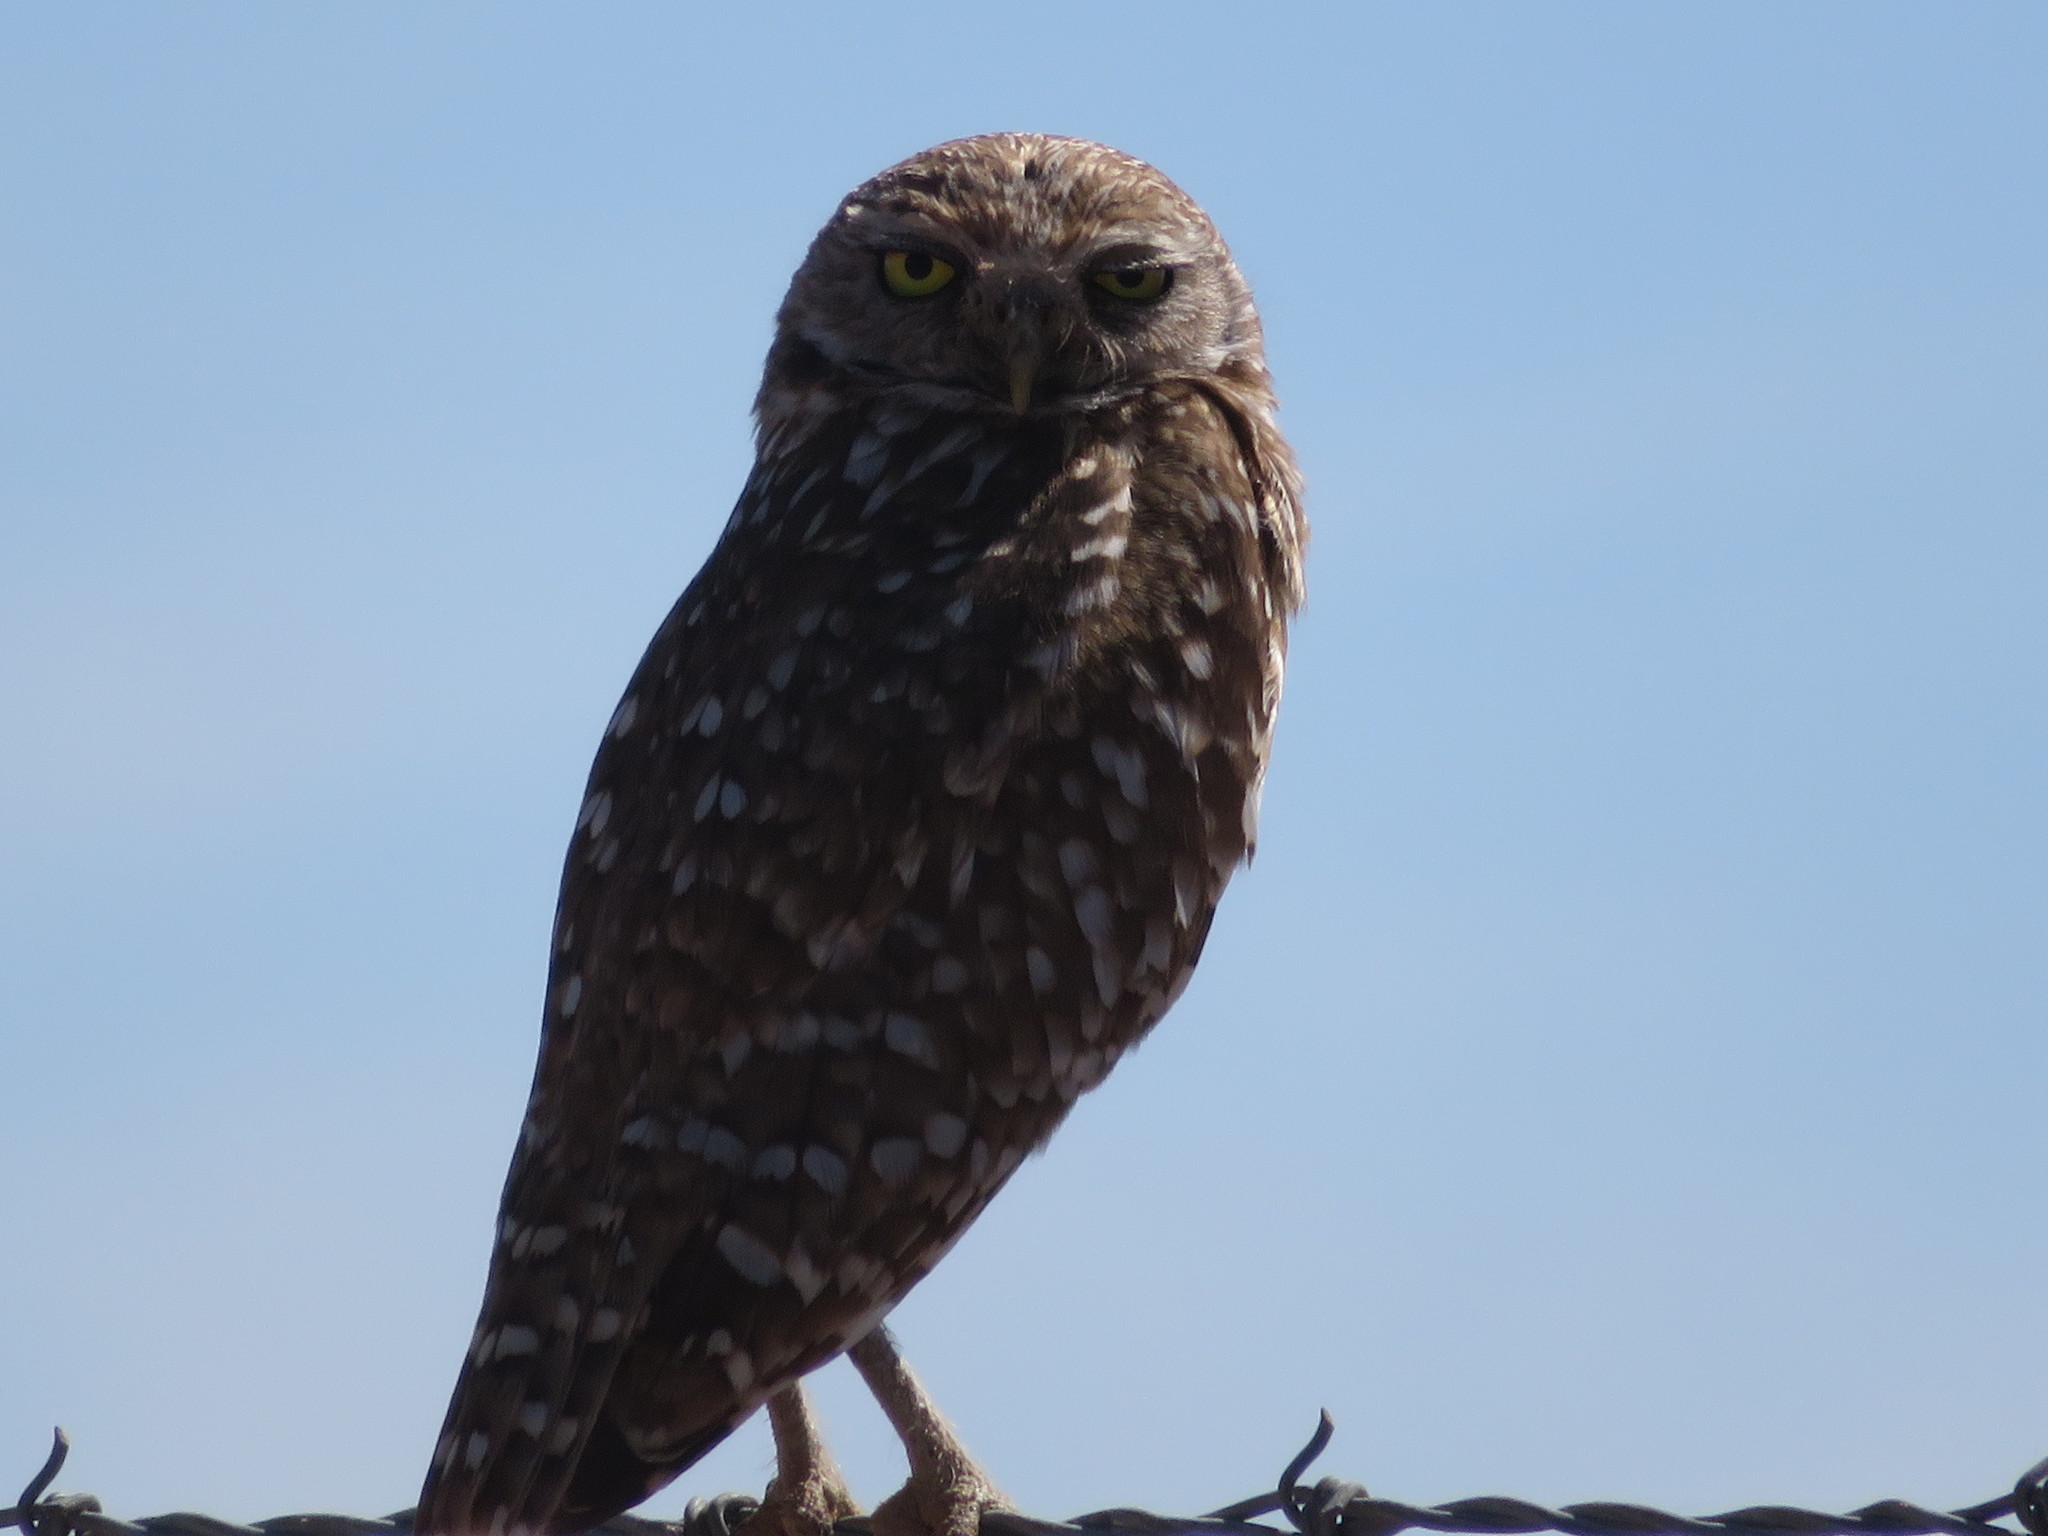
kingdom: Animalia
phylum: Chordata
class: Aves
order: Strigiformes
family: Strigidae
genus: Athene
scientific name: Athene cunicularia
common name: Burrowing owl
